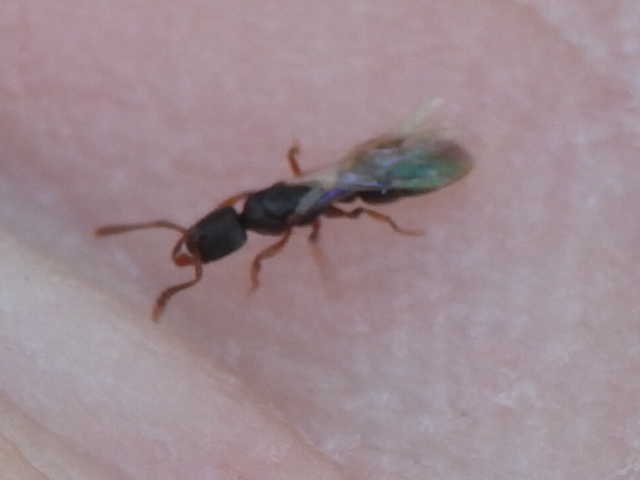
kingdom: Animalia
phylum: Arthropoda
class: Insecta
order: Hymenoptera
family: Formicidae
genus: Ponera
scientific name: Ponera pennsylvanica
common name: Pennsylvania ponera
